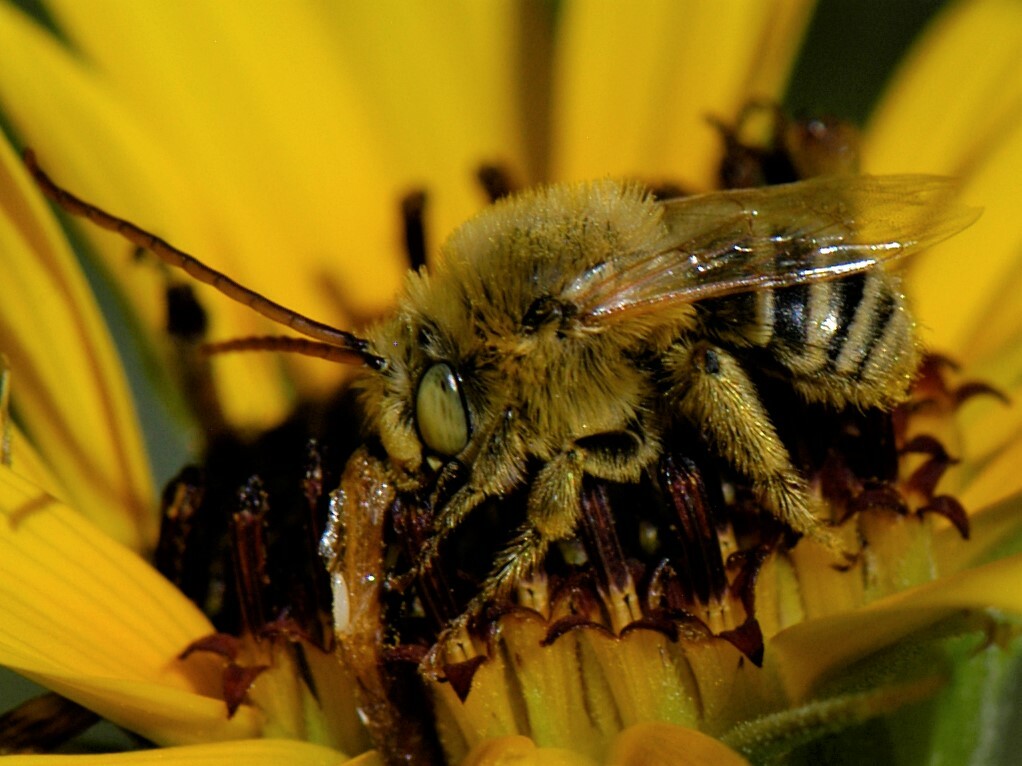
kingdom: Animalia
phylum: Arthropoda
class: Insecta
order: Hymenoptera
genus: Eumelissodes
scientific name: Eumelissodes
